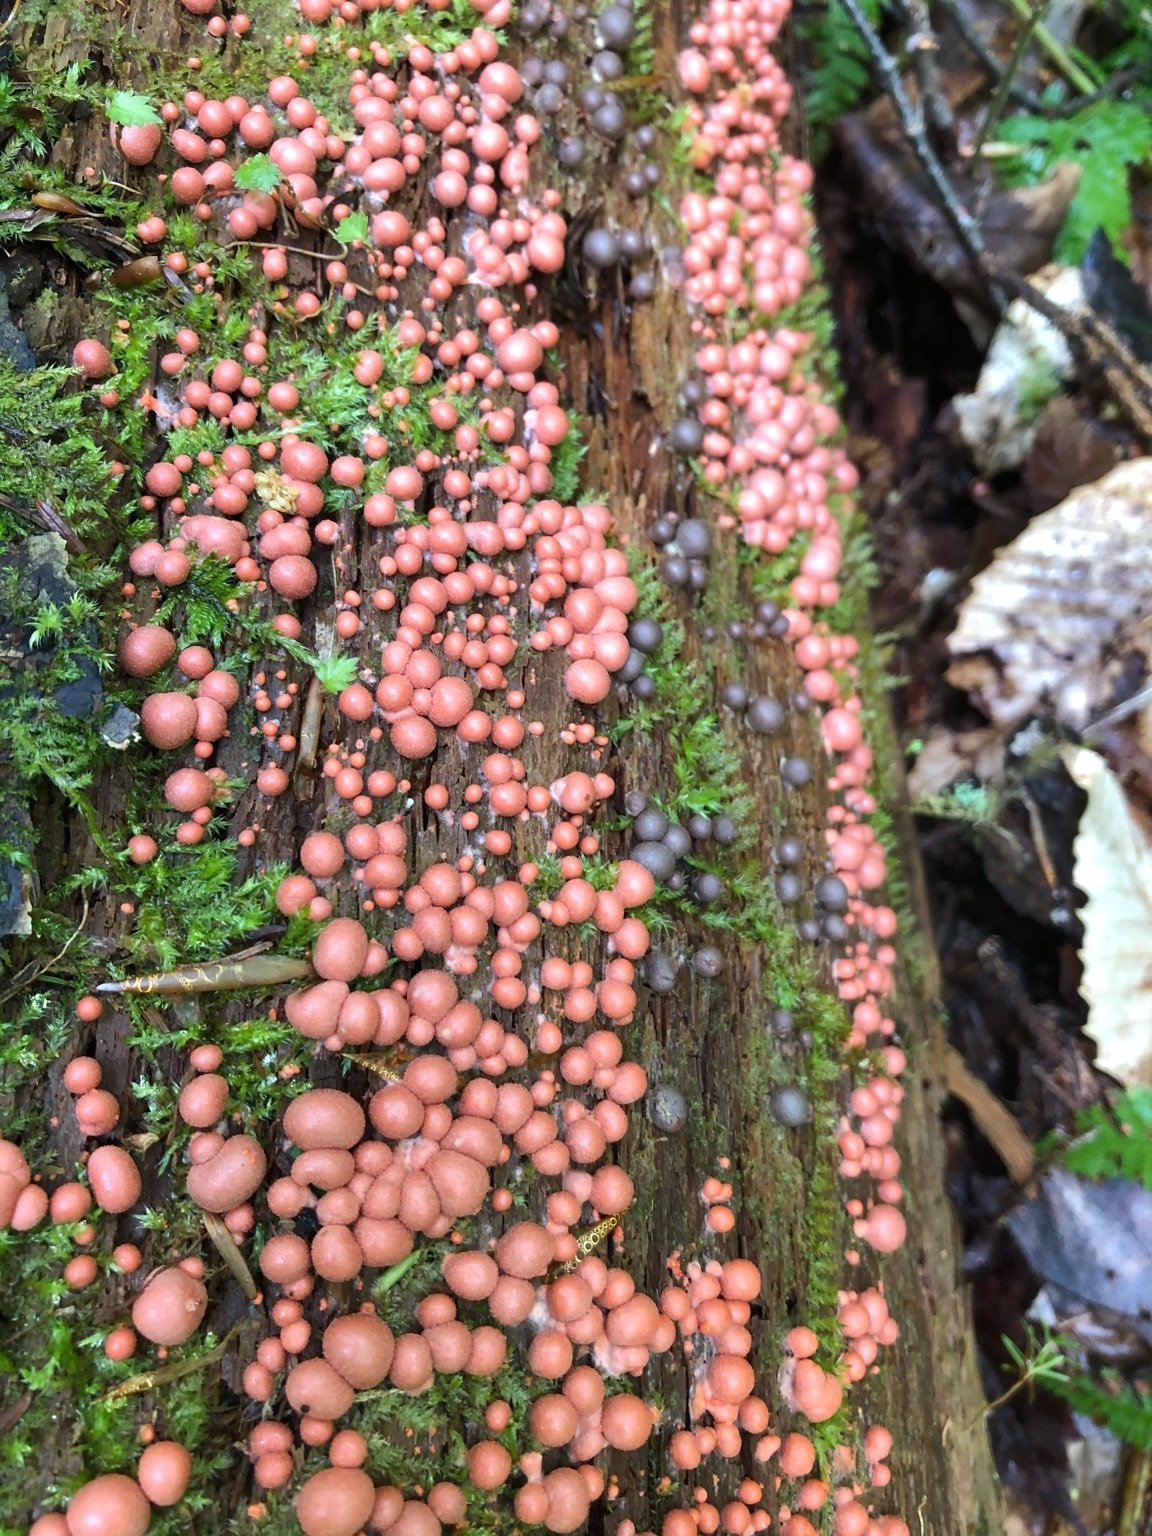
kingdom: Protozoa
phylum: Mycetozoa
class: Myxomycetes
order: Cribrariales
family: Tubiferaceae
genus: Lycogala
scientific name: Lycogala epidendrum
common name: Wolf's milk
